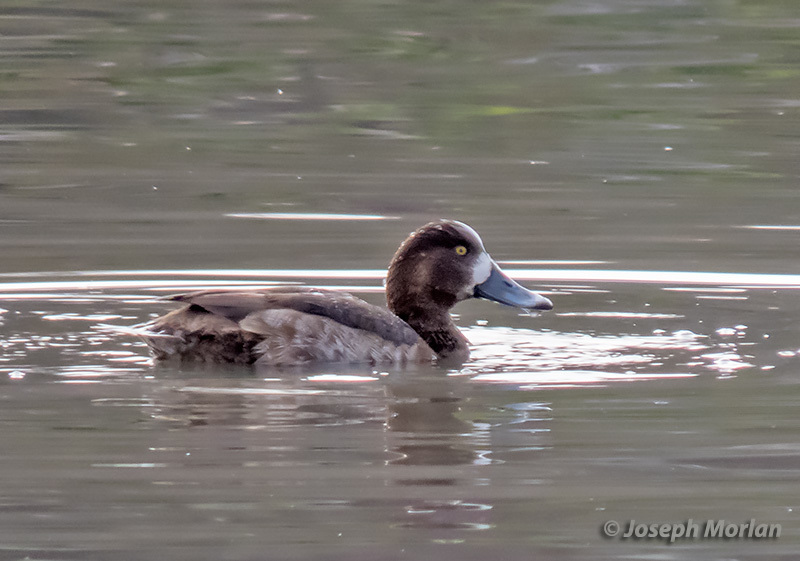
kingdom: Animalia
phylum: Chordata
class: Aves
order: Anseriformes
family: Anatidae
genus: Aythya
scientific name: Aythya marila
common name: Greater scaup
